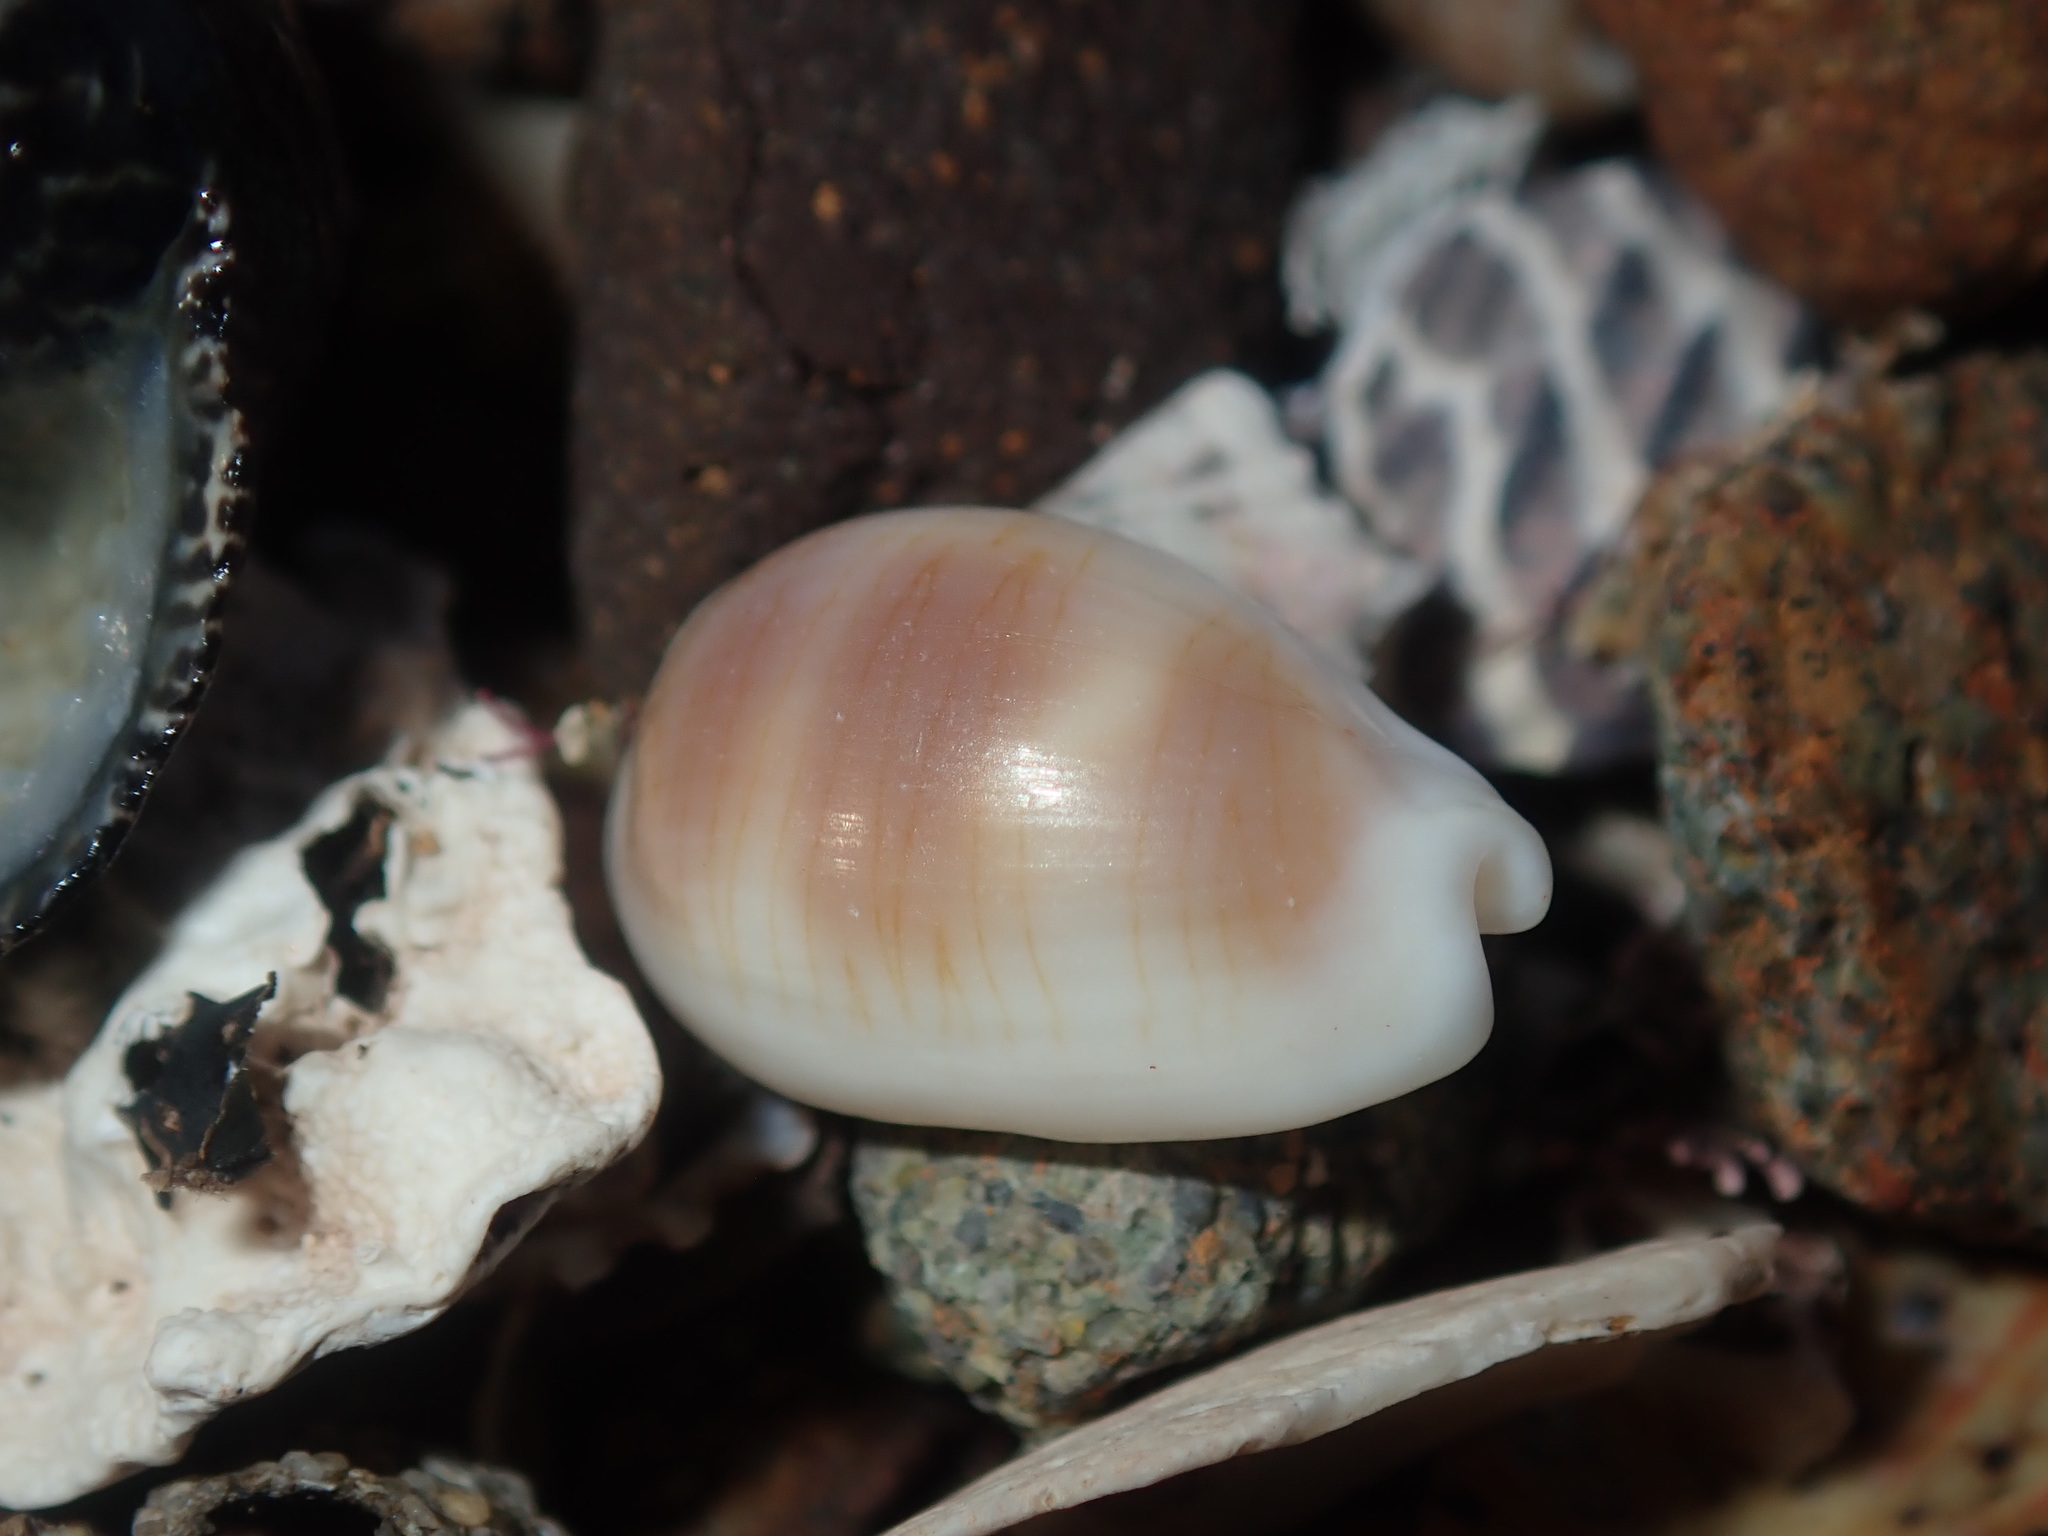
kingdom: Animalia
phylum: Mollusca
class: Gastropoda
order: Littorinimorpha
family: Cypraeidae
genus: Palmadusta
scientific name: Palmadusta clandestina
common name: Cowrie
